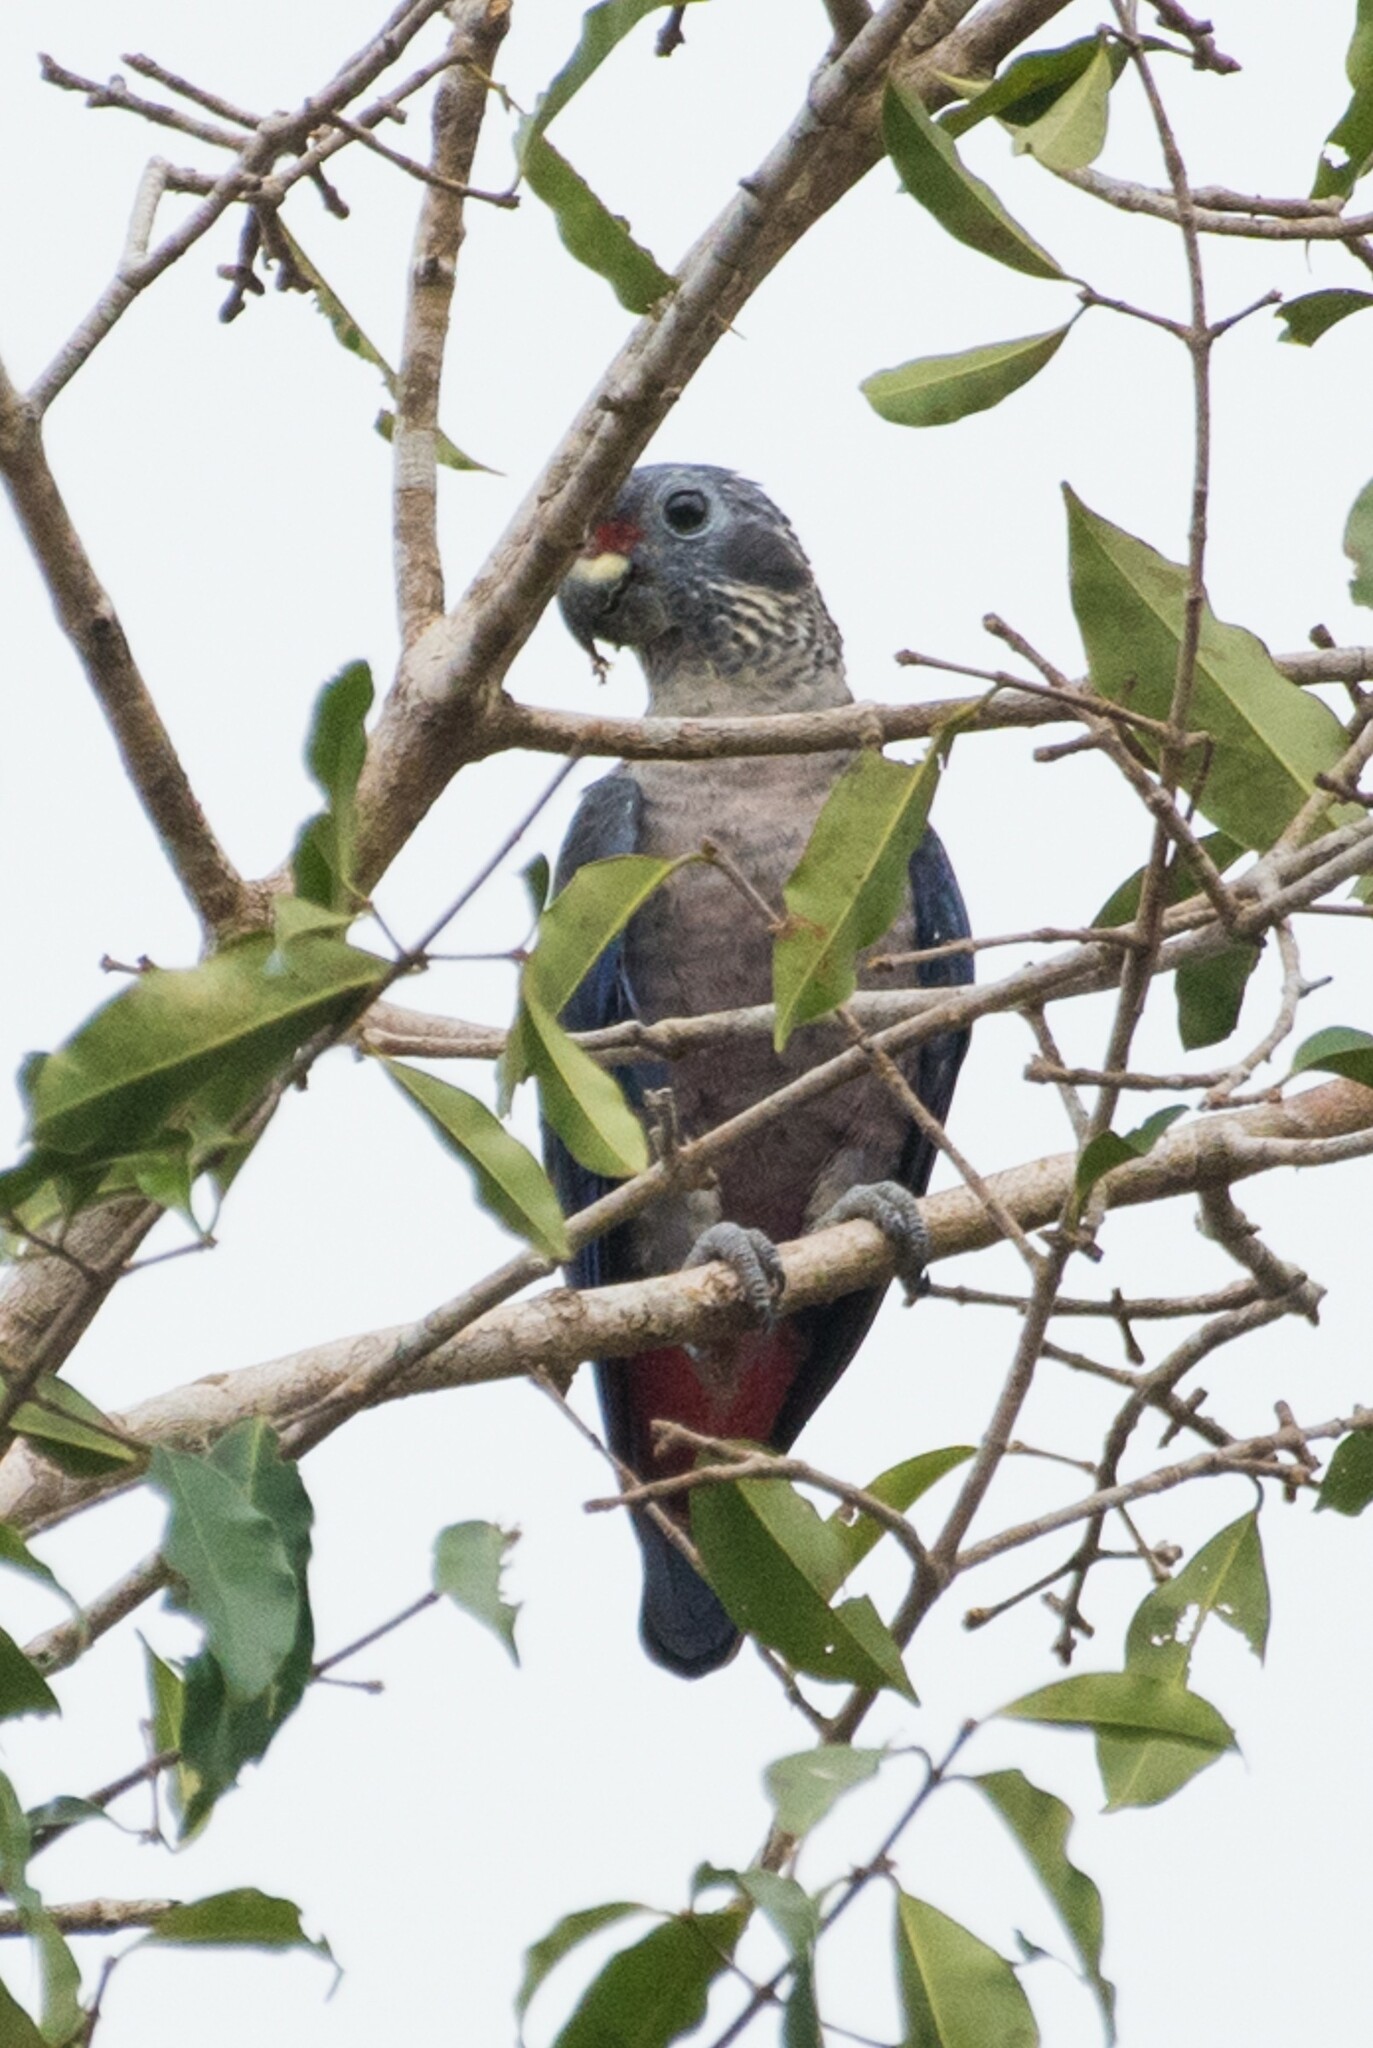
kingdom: Animalia
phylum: Chordata
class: Aves
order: Psittaciformes
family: Psittacidae
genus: Pionus
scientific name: Pionus fuscus
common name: Dusky parrot
